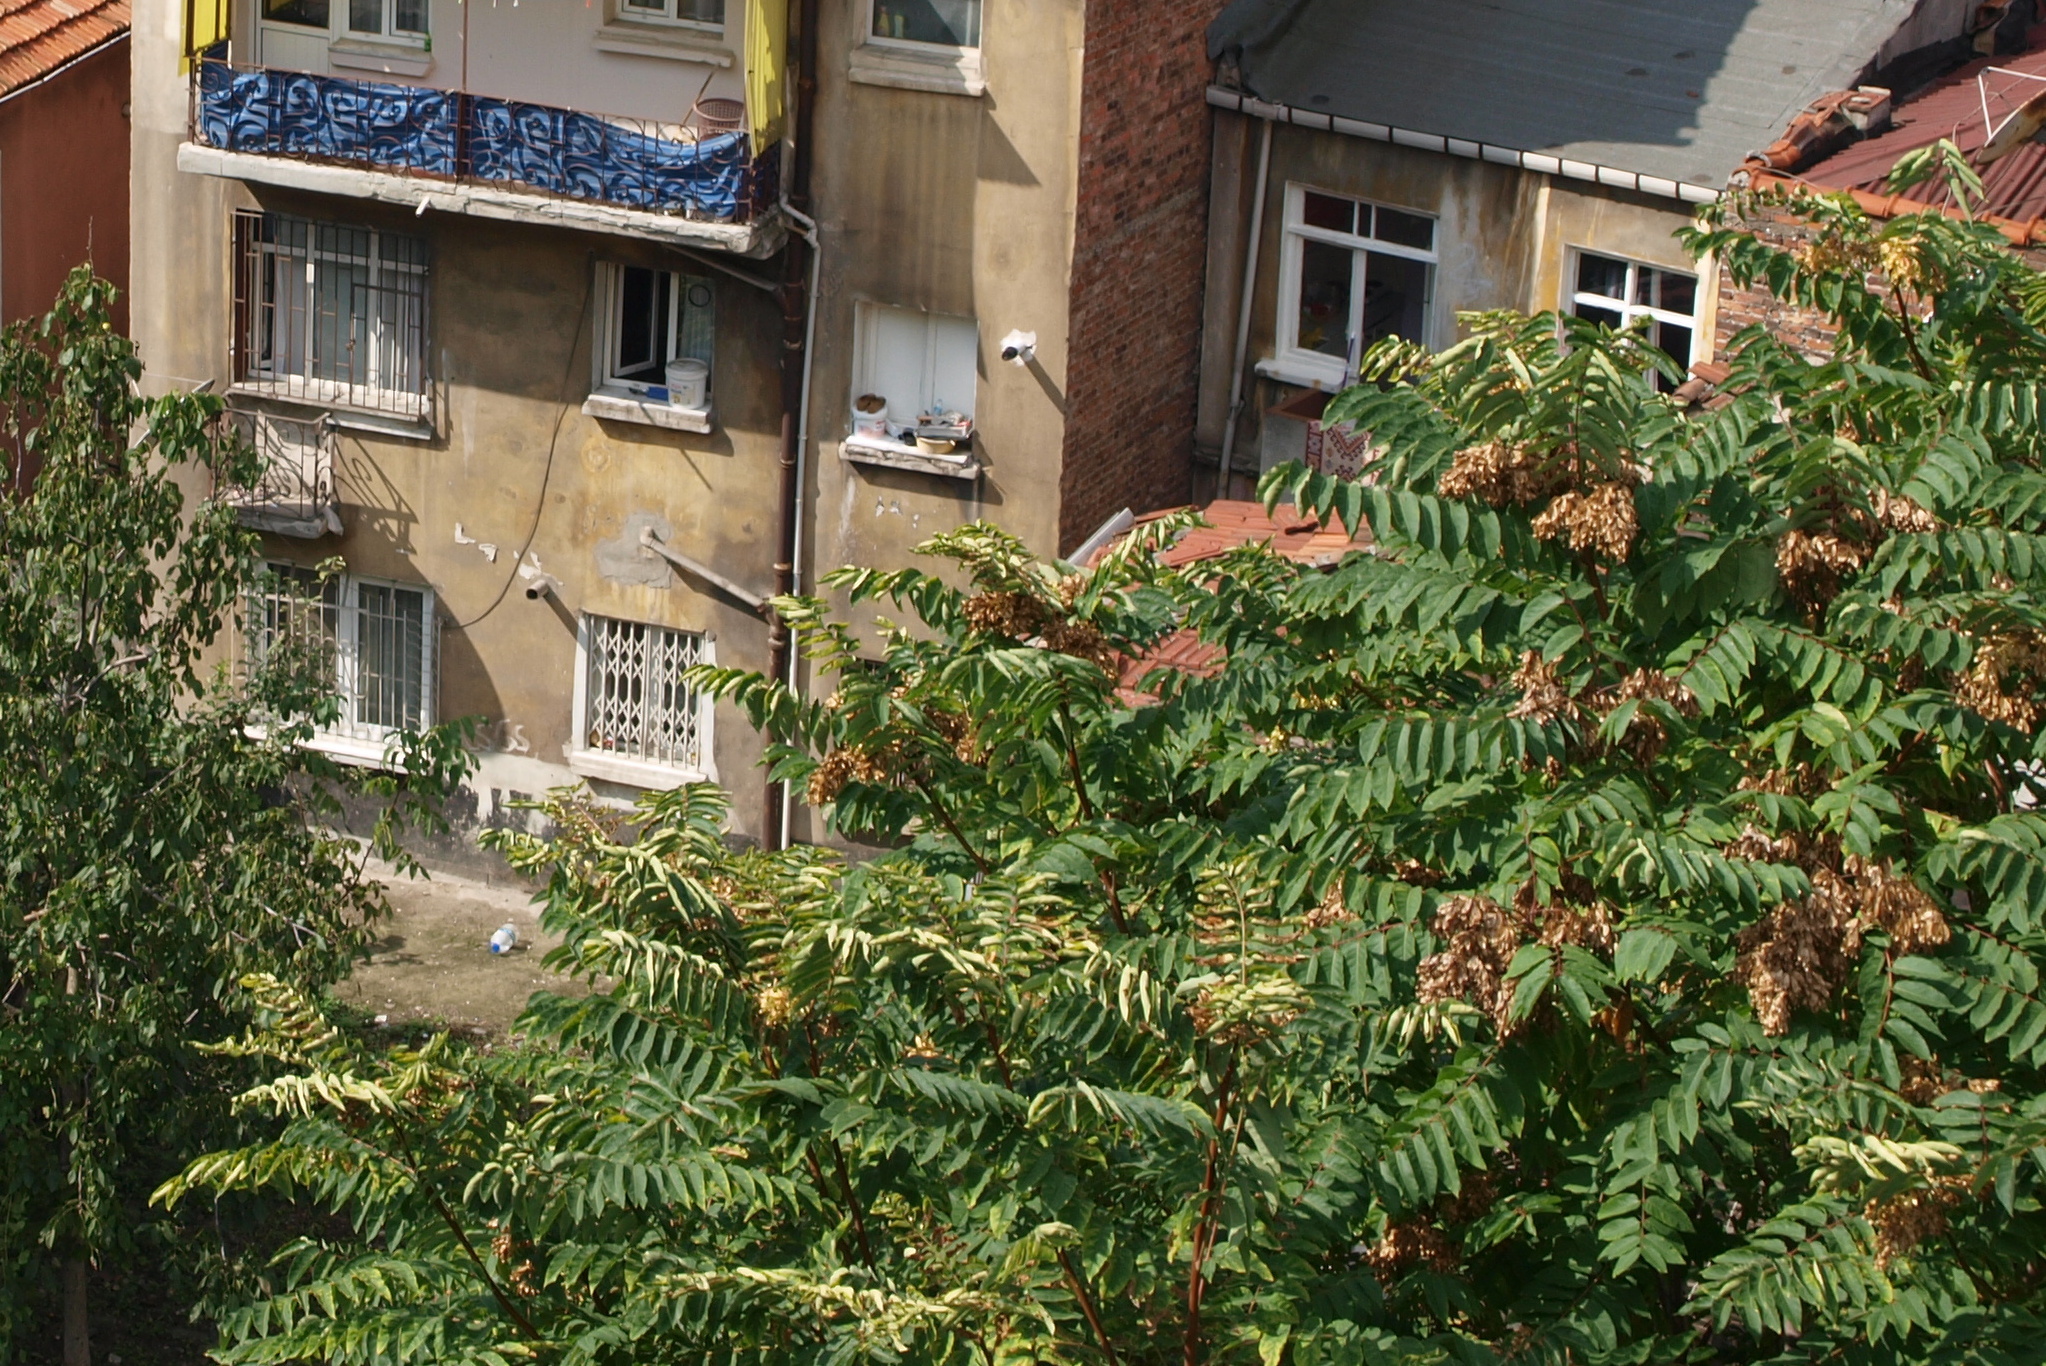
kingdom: Plantae
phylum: Tracheophyta
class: Magnoliopsida
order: Sapindales
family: Simaroubaceae
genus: Ailanthus
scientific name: Ailanthus altissima
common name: Tree-of-heaven
